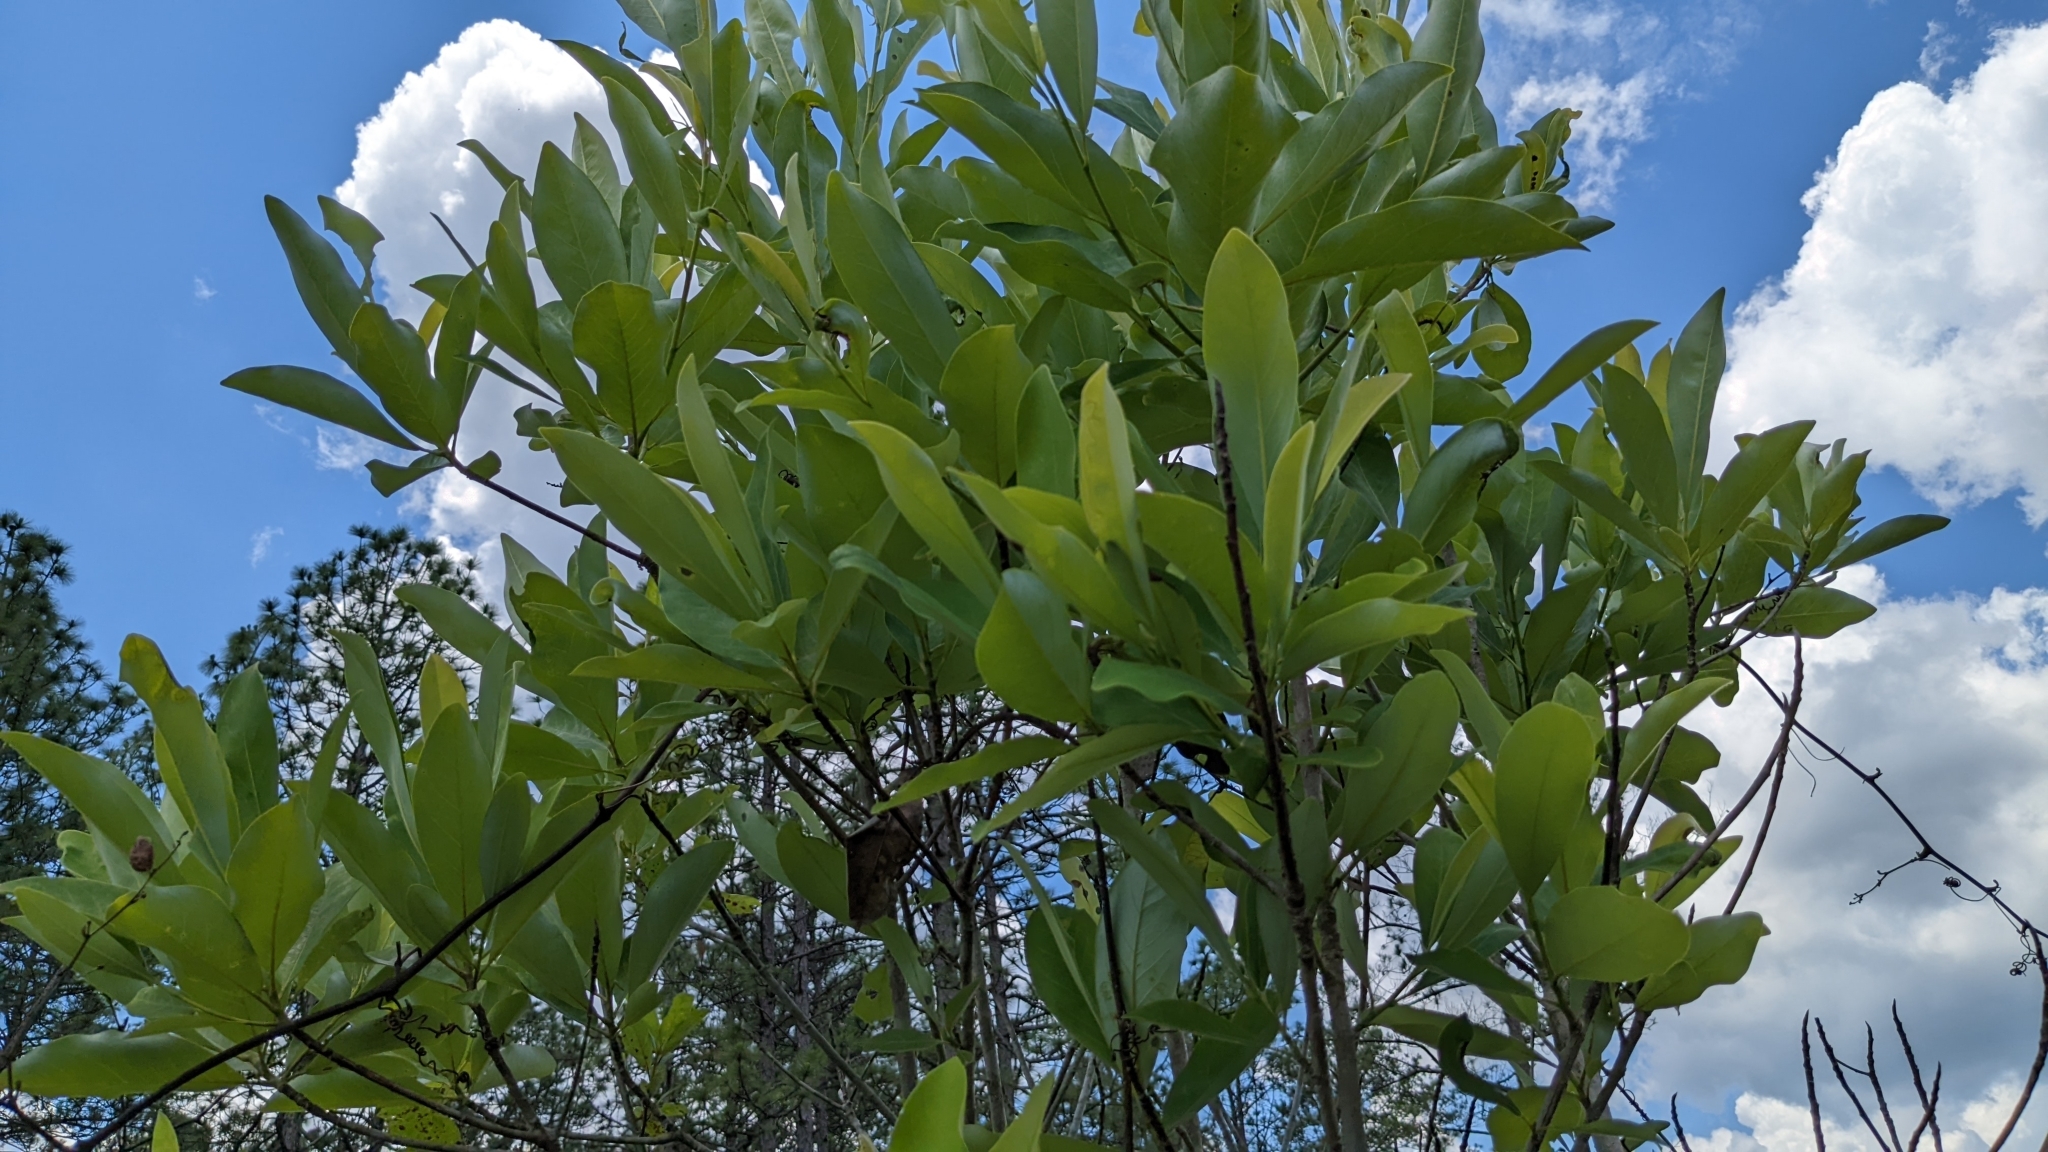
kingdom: Plantae
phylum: Tracheophyta
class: Magnoliopsida
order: Magnoliales
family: Magnoliaceae
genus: Magnolia
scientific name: Magnolia virginiana
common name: Swamp bay
